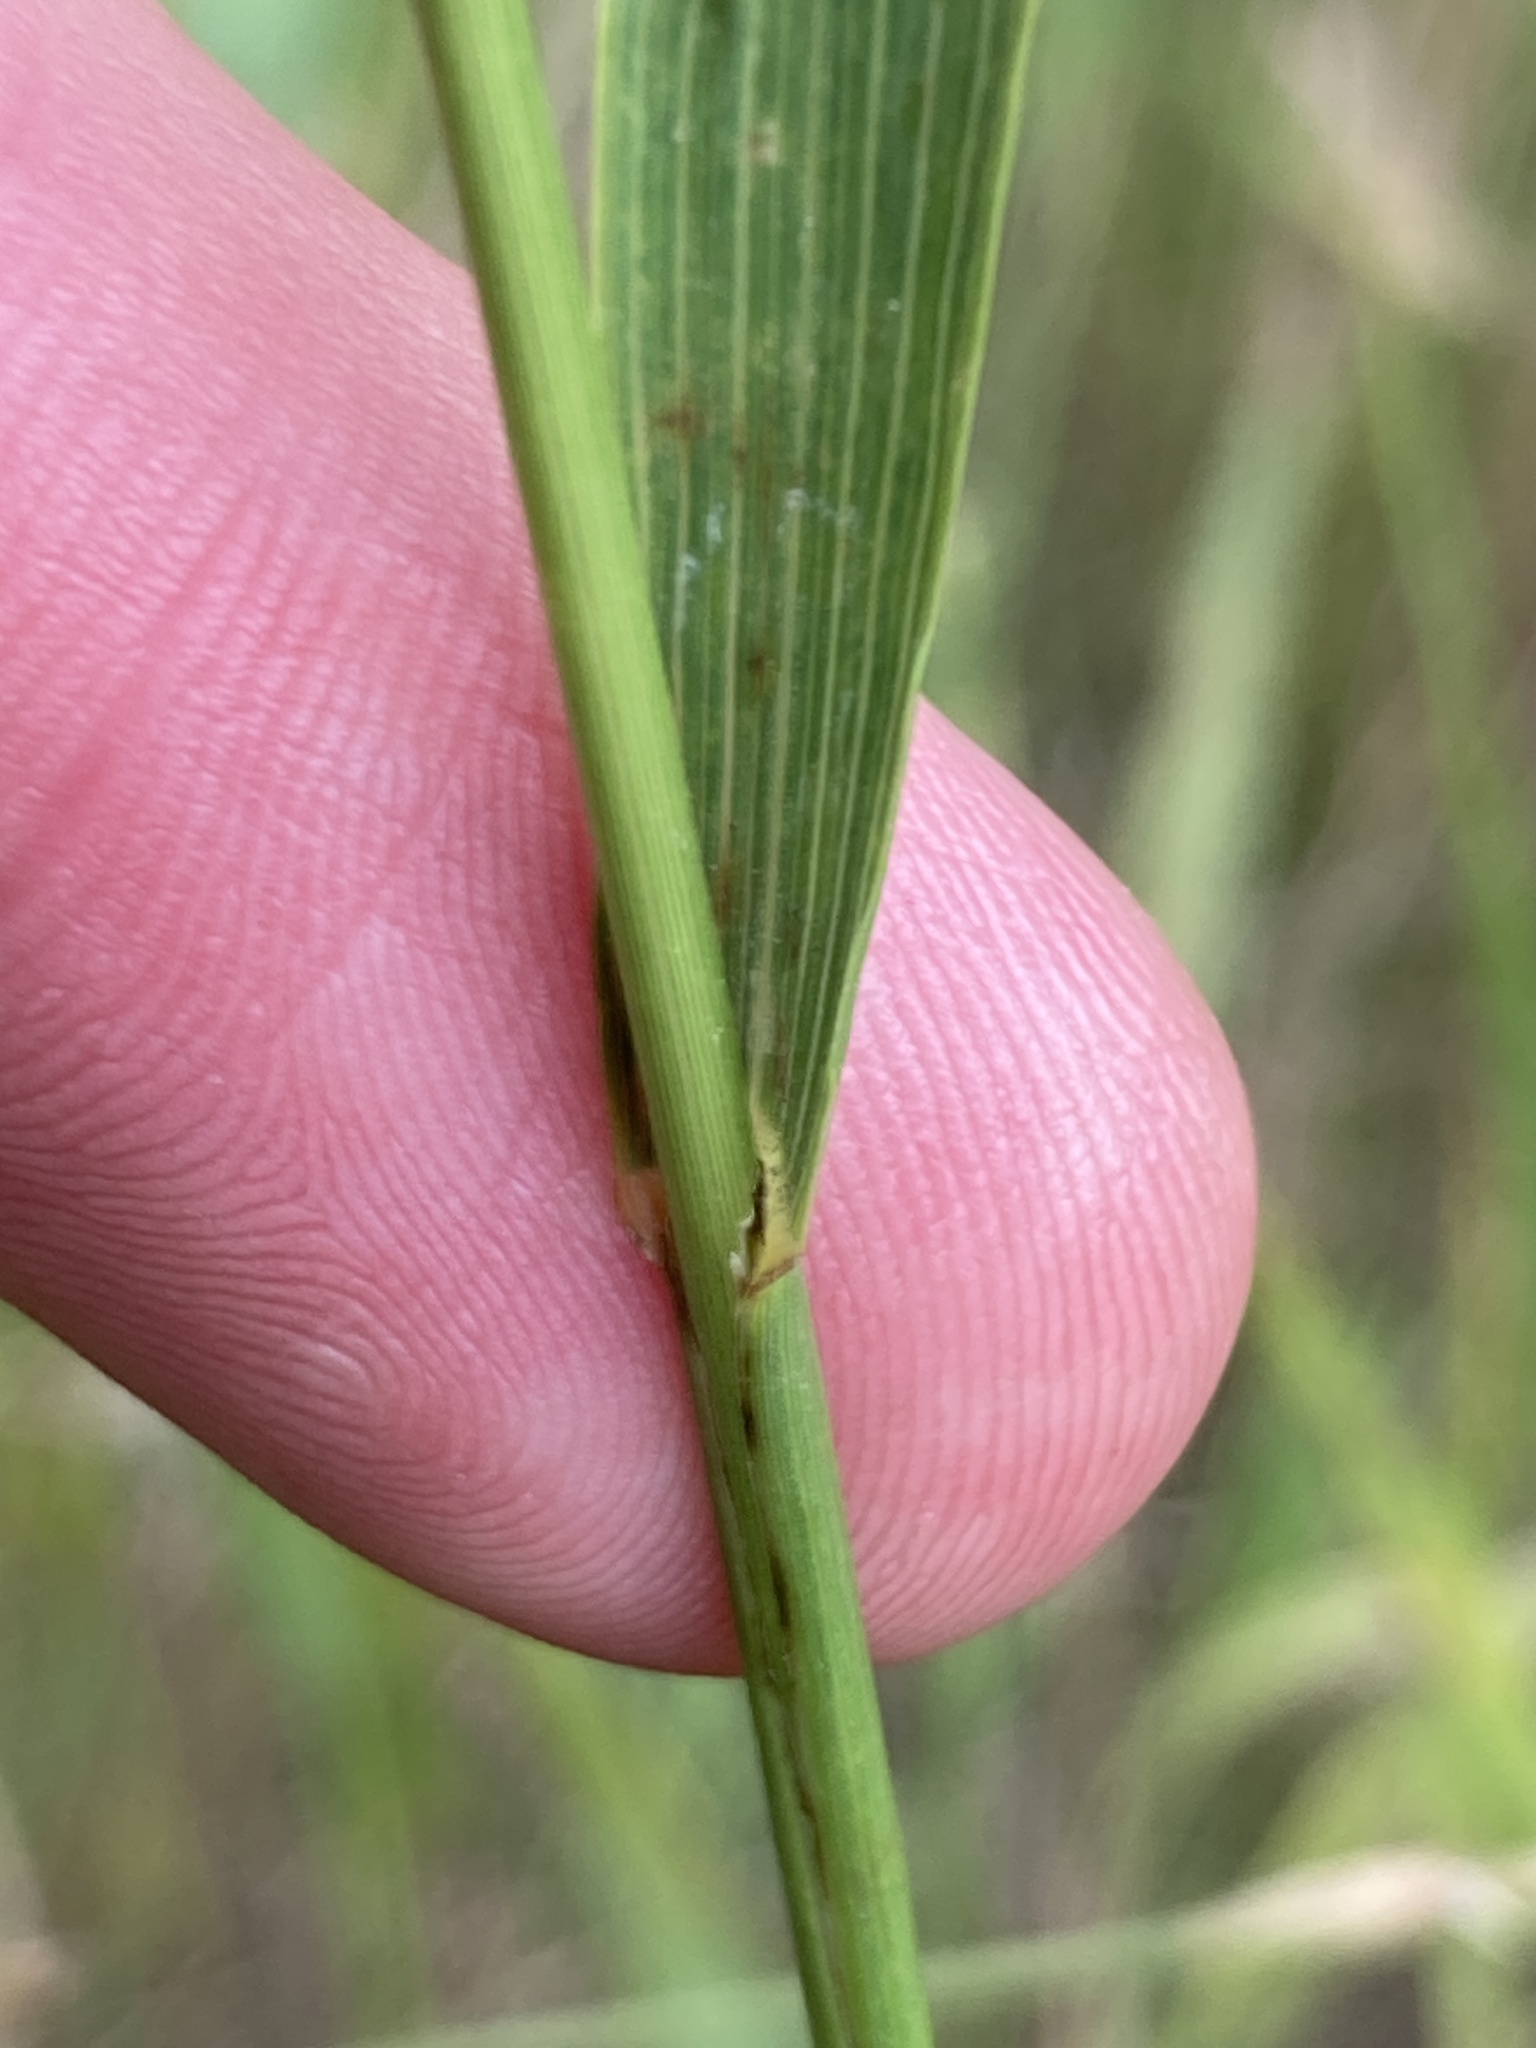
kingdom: Plantae
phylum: Tracheophyta
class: Liliopsida
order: Poales
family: Poaceae
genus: Bromus
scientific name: Bromus inermis
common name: Smooth brome
